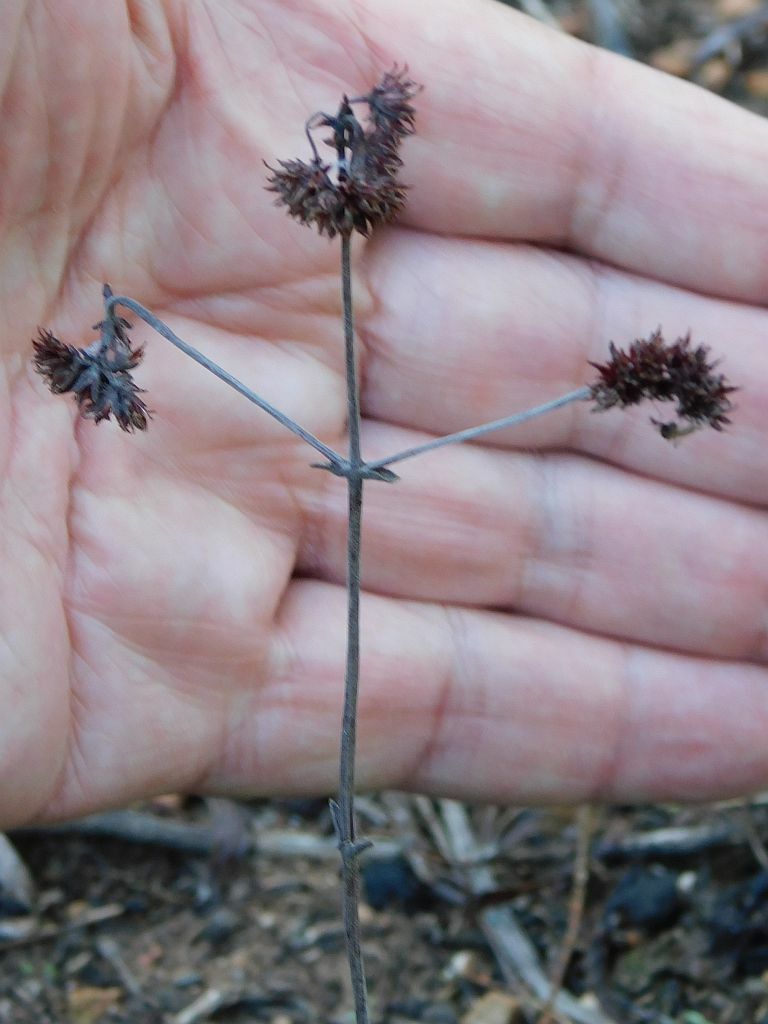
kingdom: Plantae
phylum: Tracheophyta
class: Magnoliopsida
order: Saxifragales
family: Crassulaceae
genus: Crassula
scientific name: Crassula atropurpurea
